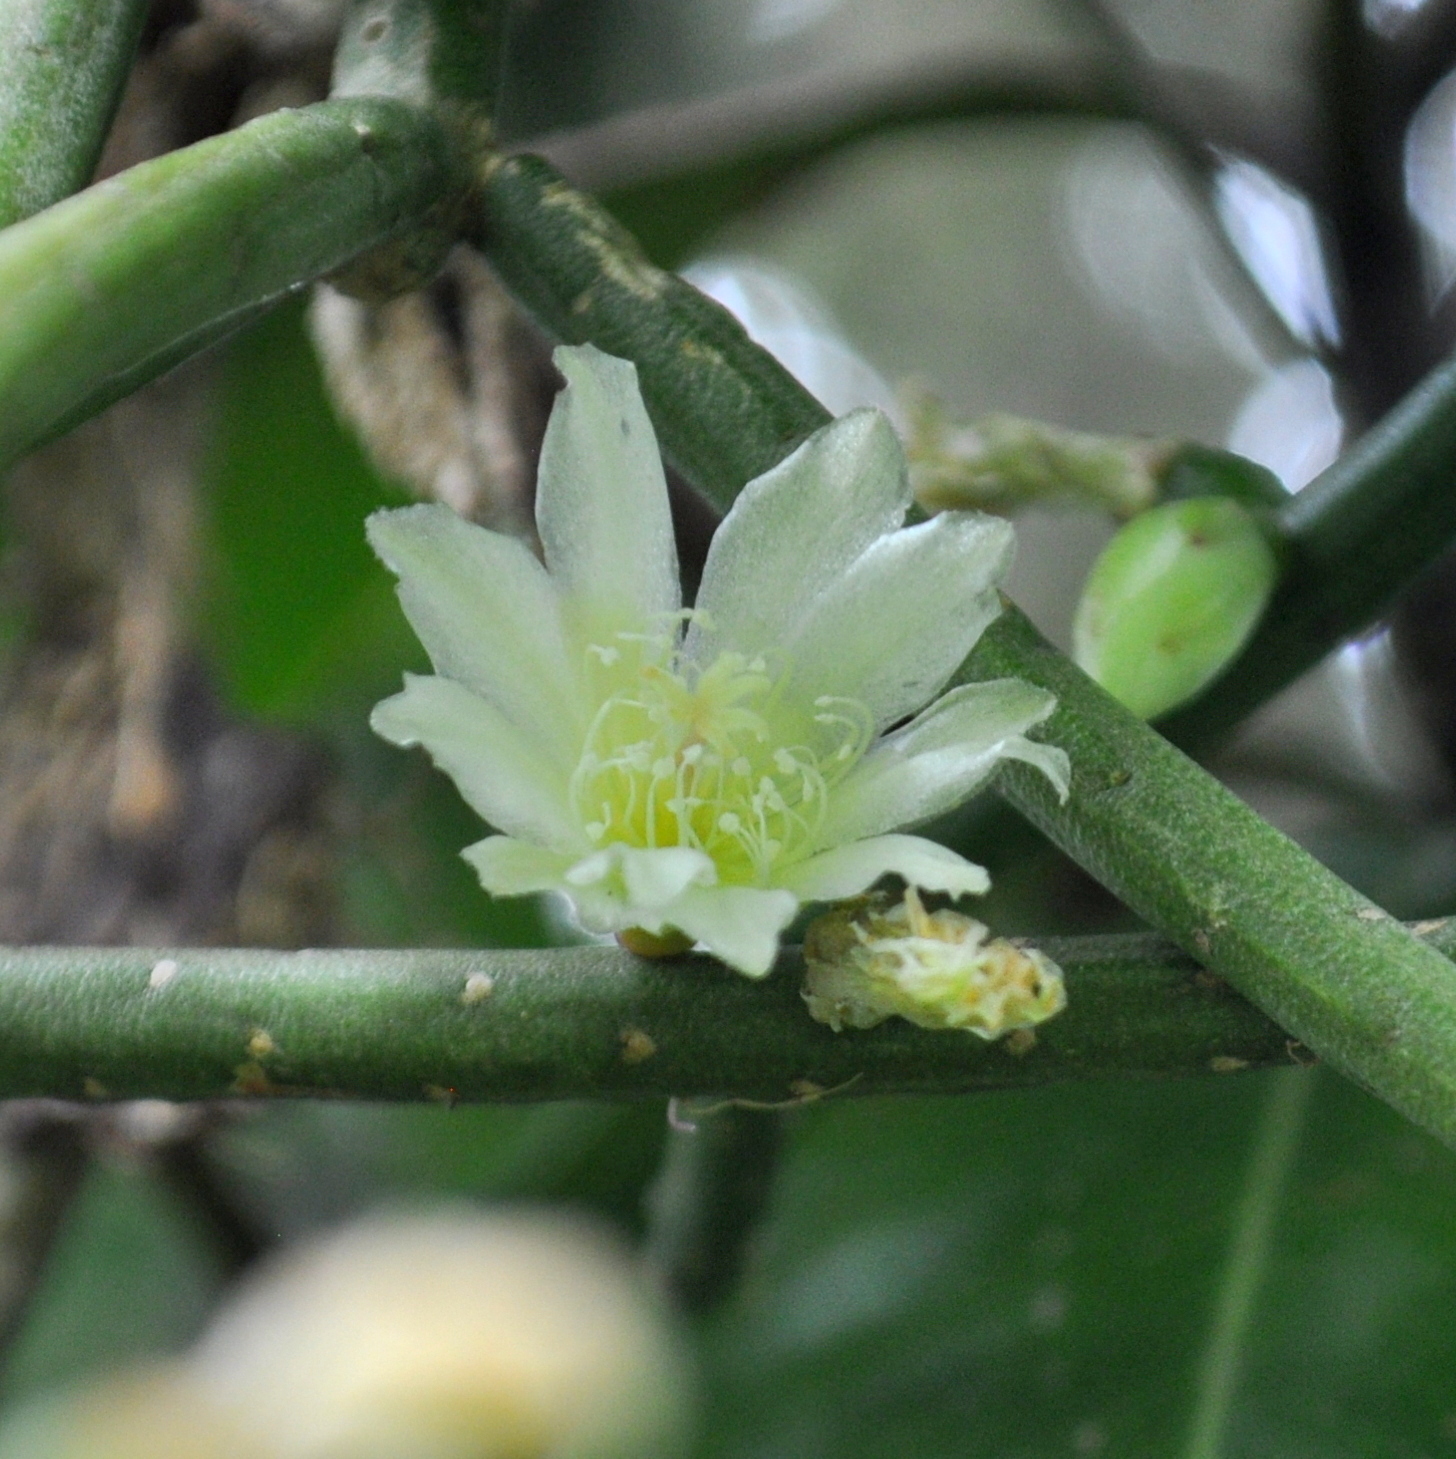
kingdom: Plantae
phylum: Tracheophyta
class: Magnoliopsida
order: Caryophyllales
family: Cactaceae
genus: Lepismium
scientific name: Lepismium lumbricoides
